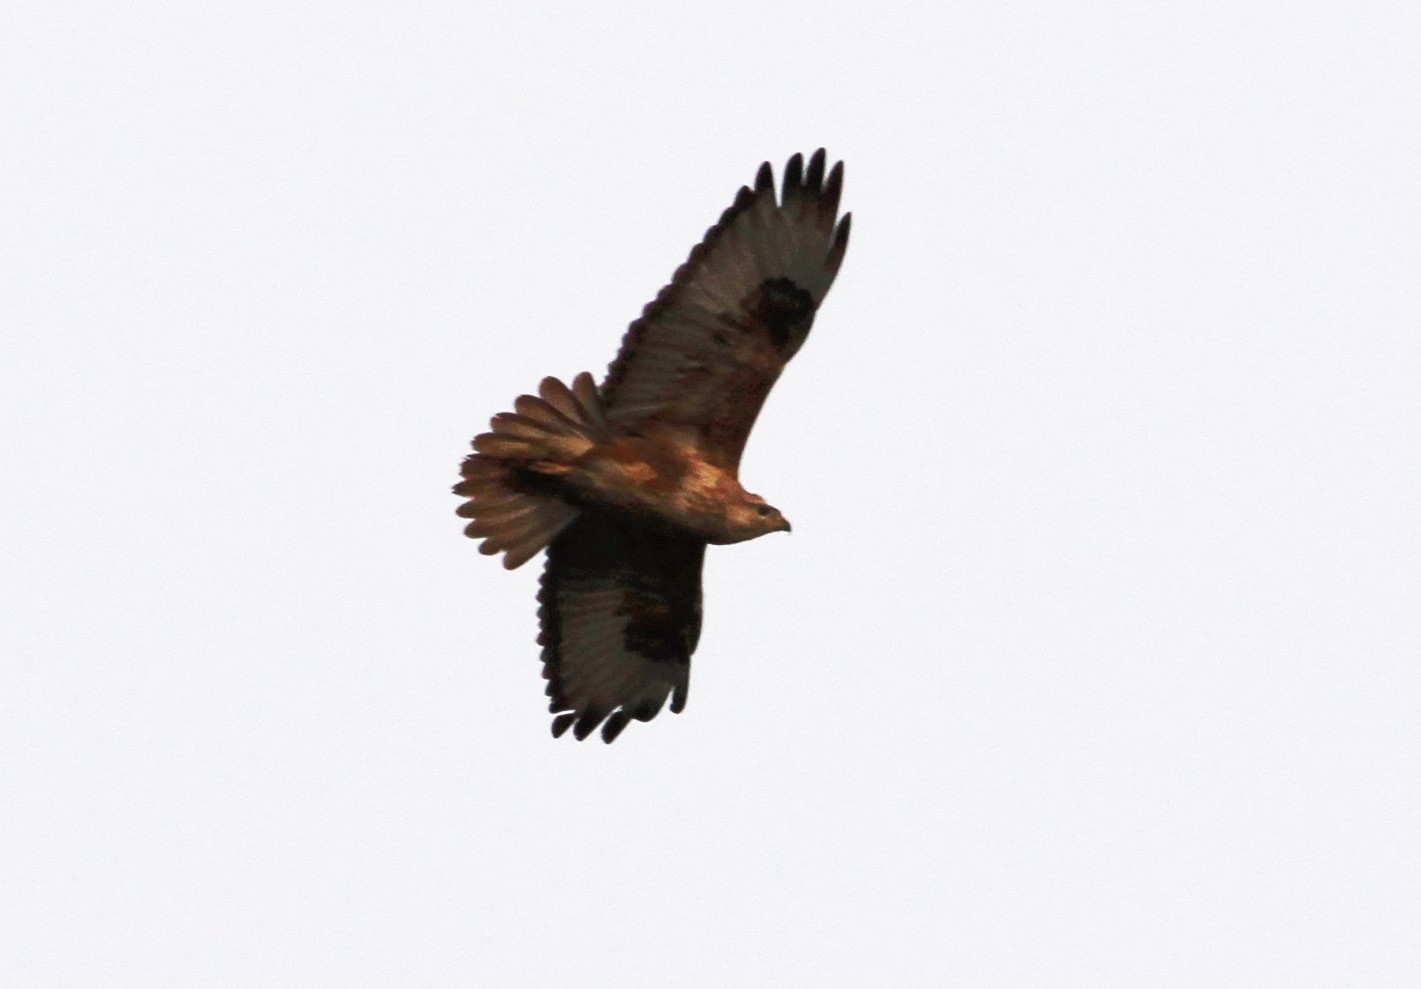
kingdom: Animalia
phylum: Chordata
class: Aves
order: Accipitriformes
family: Accipitridae
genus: Buteo
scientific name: Buteo rufinus
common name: Long-legged buzzard
